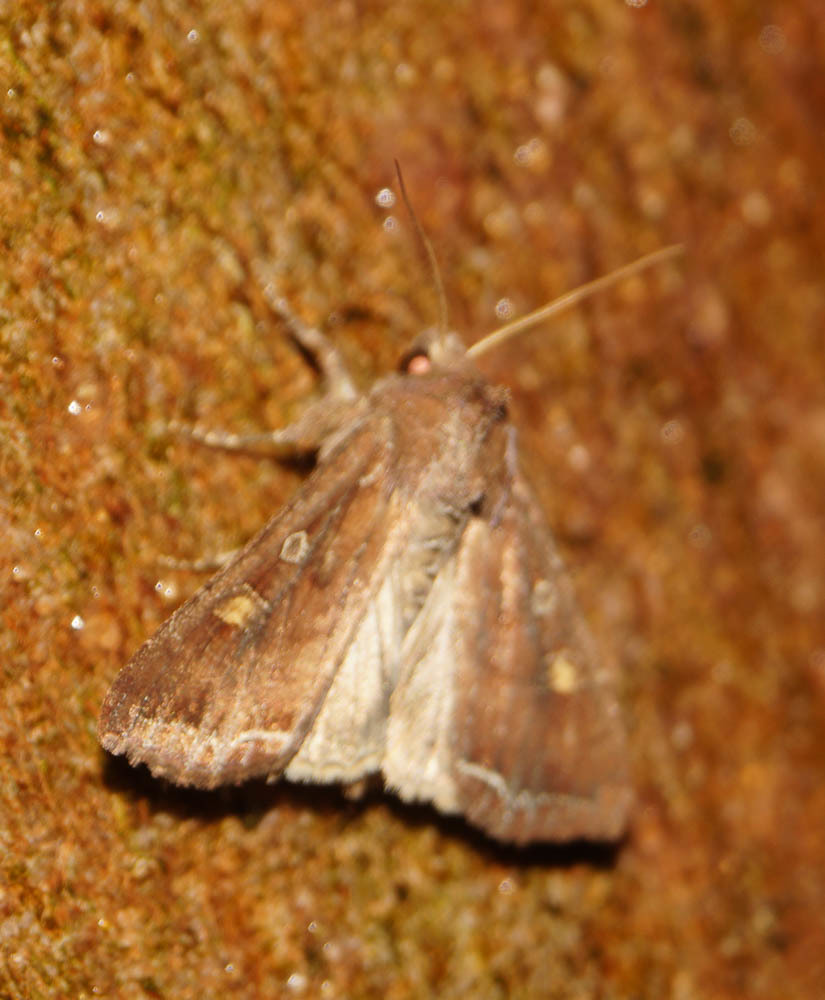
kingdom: Animalia
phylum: Arthropoda
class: Insecta
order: Lepidoptera
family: Noctuidae
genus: Lacanobia
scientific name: Lacanobia oleracea
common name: Bright-line brown-eye
